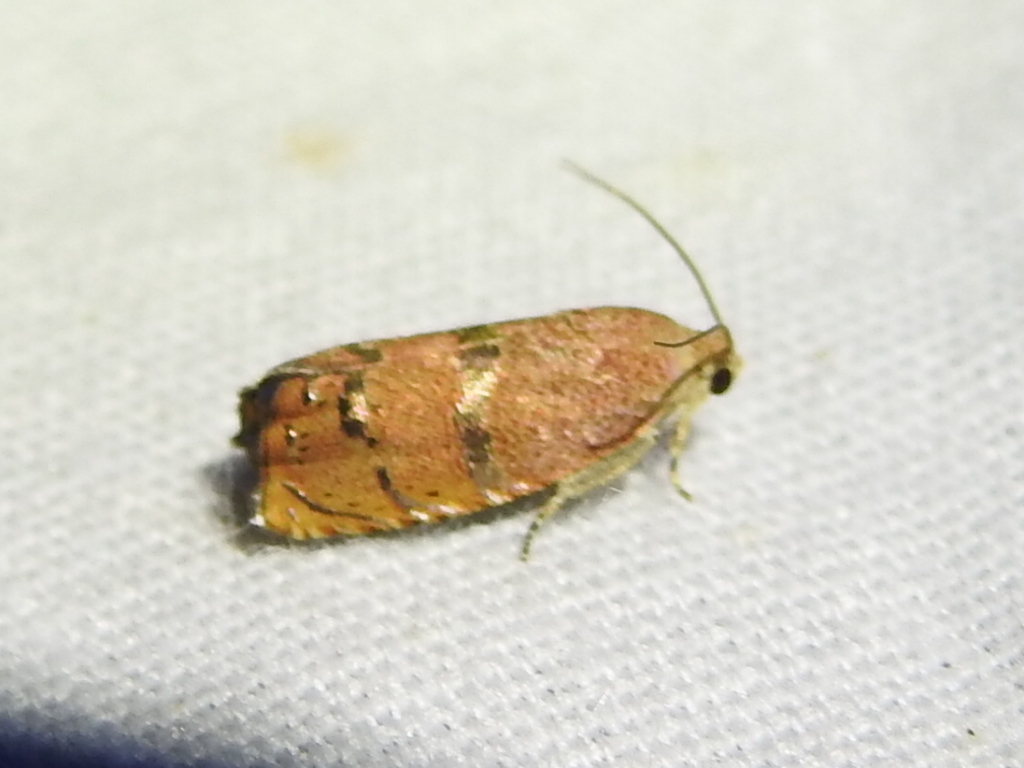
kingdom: Animalia
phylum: Arthropoda
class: Insecta
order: Lepidoptera
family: Tortricidae
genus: Cydia
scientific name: Cydia latiferreana
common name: Filbertworm moth
